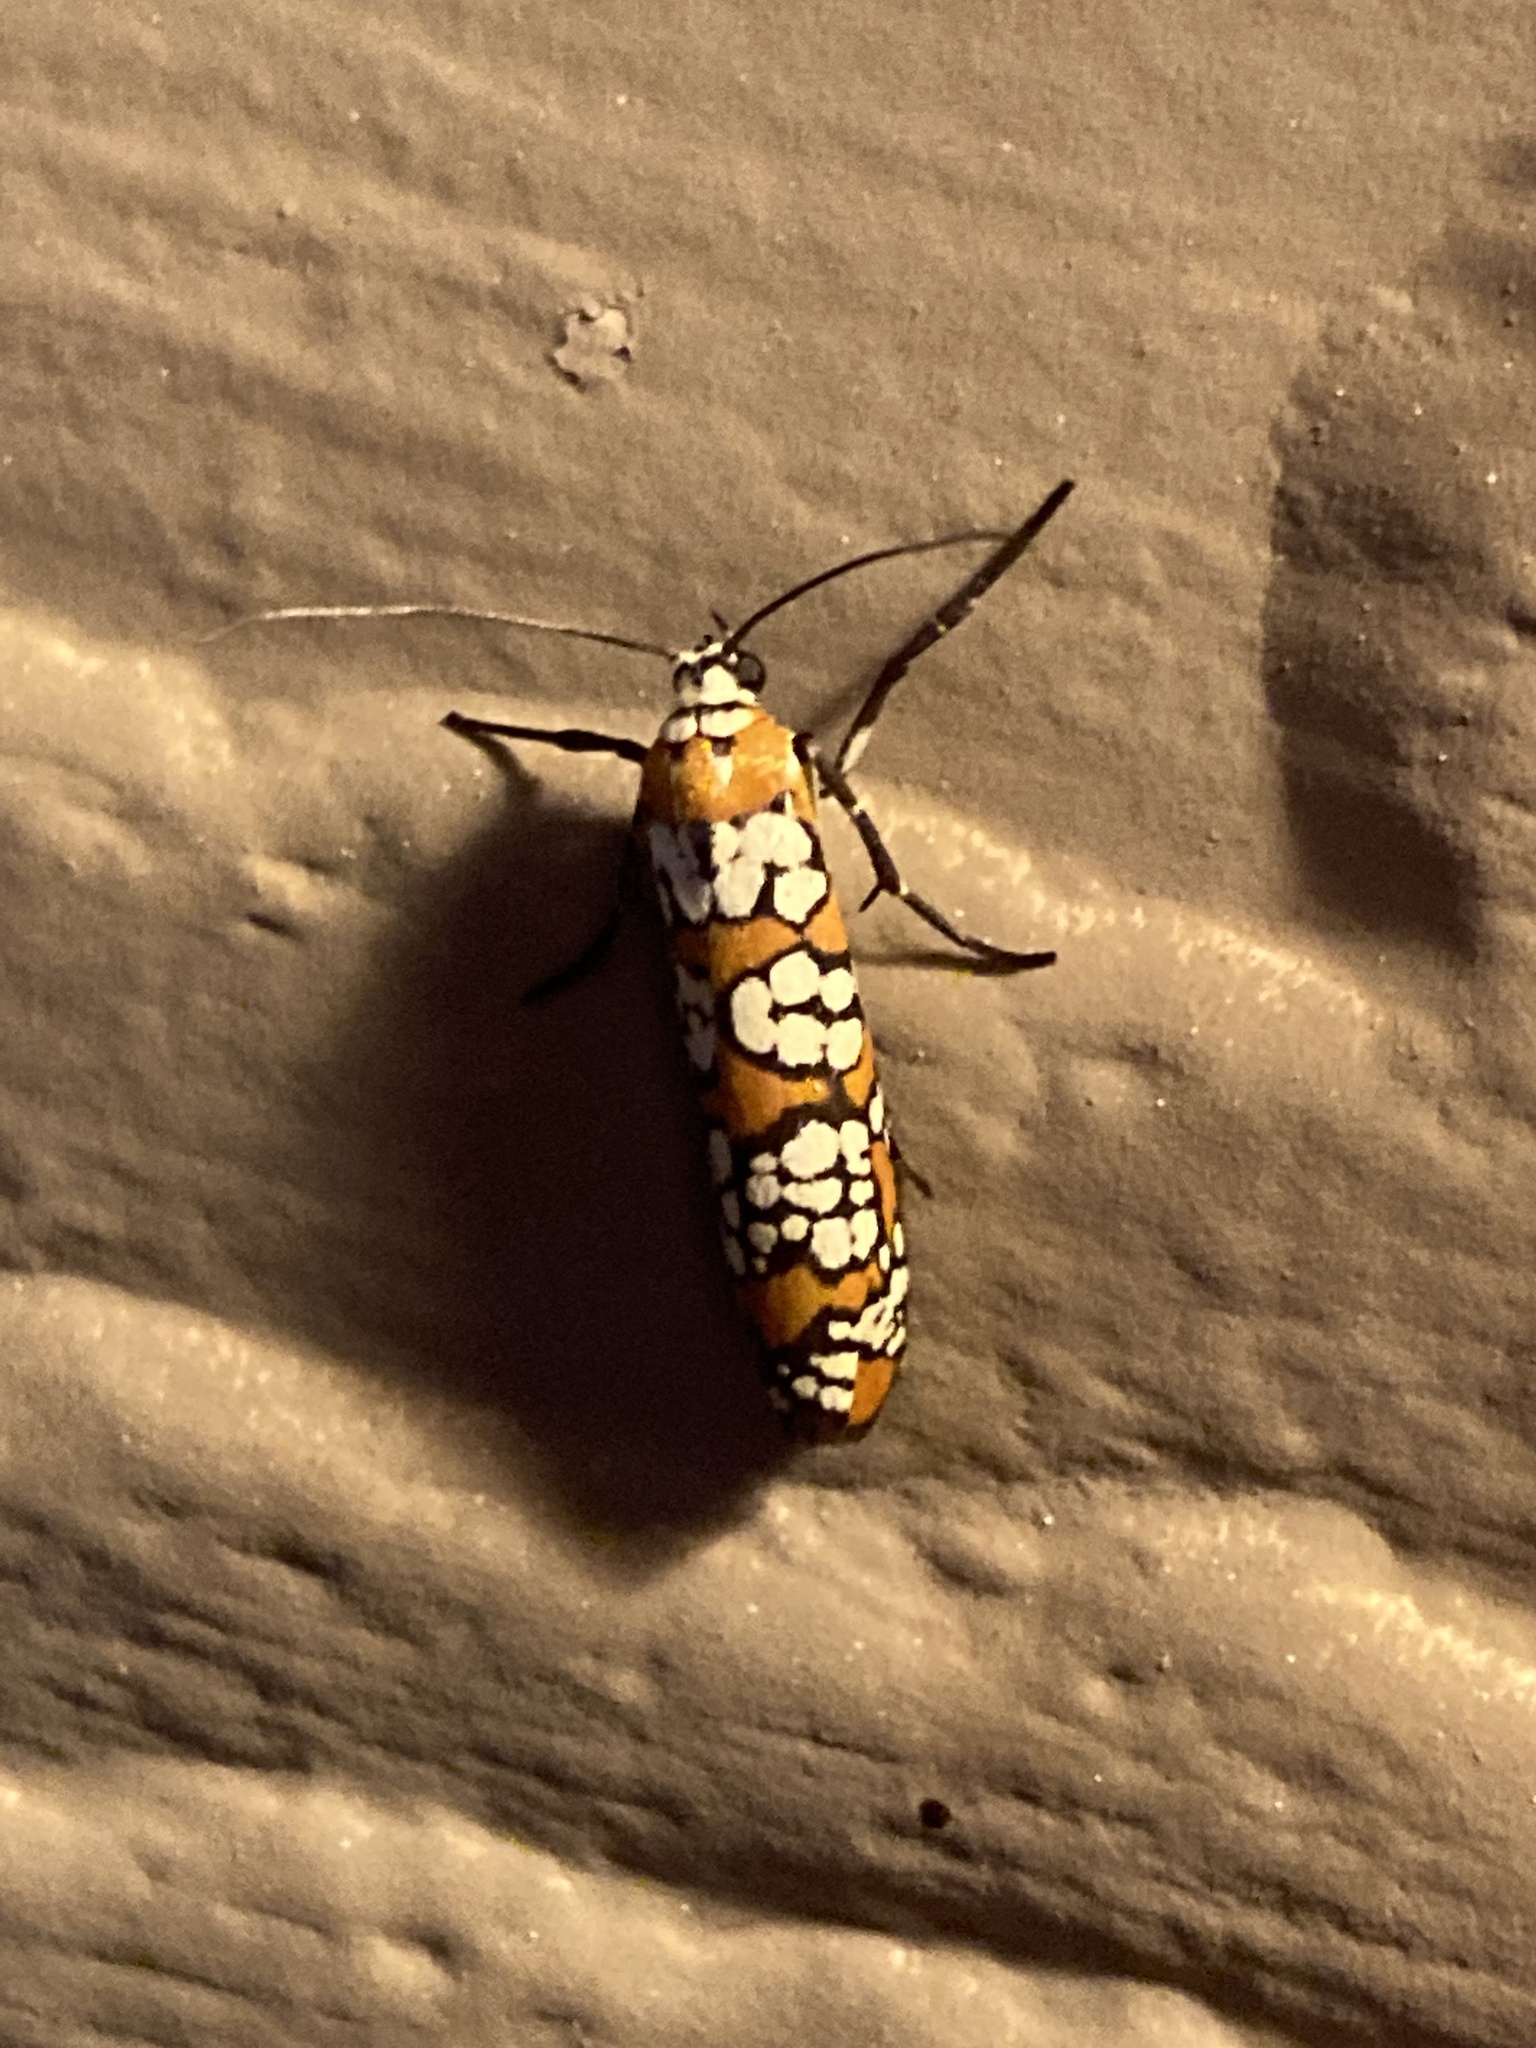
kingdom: Animalia
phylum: Arthropoda
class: Insecta
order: Lepidoptera
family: Attevidae
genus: Atteva
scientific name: Atteva punctella
